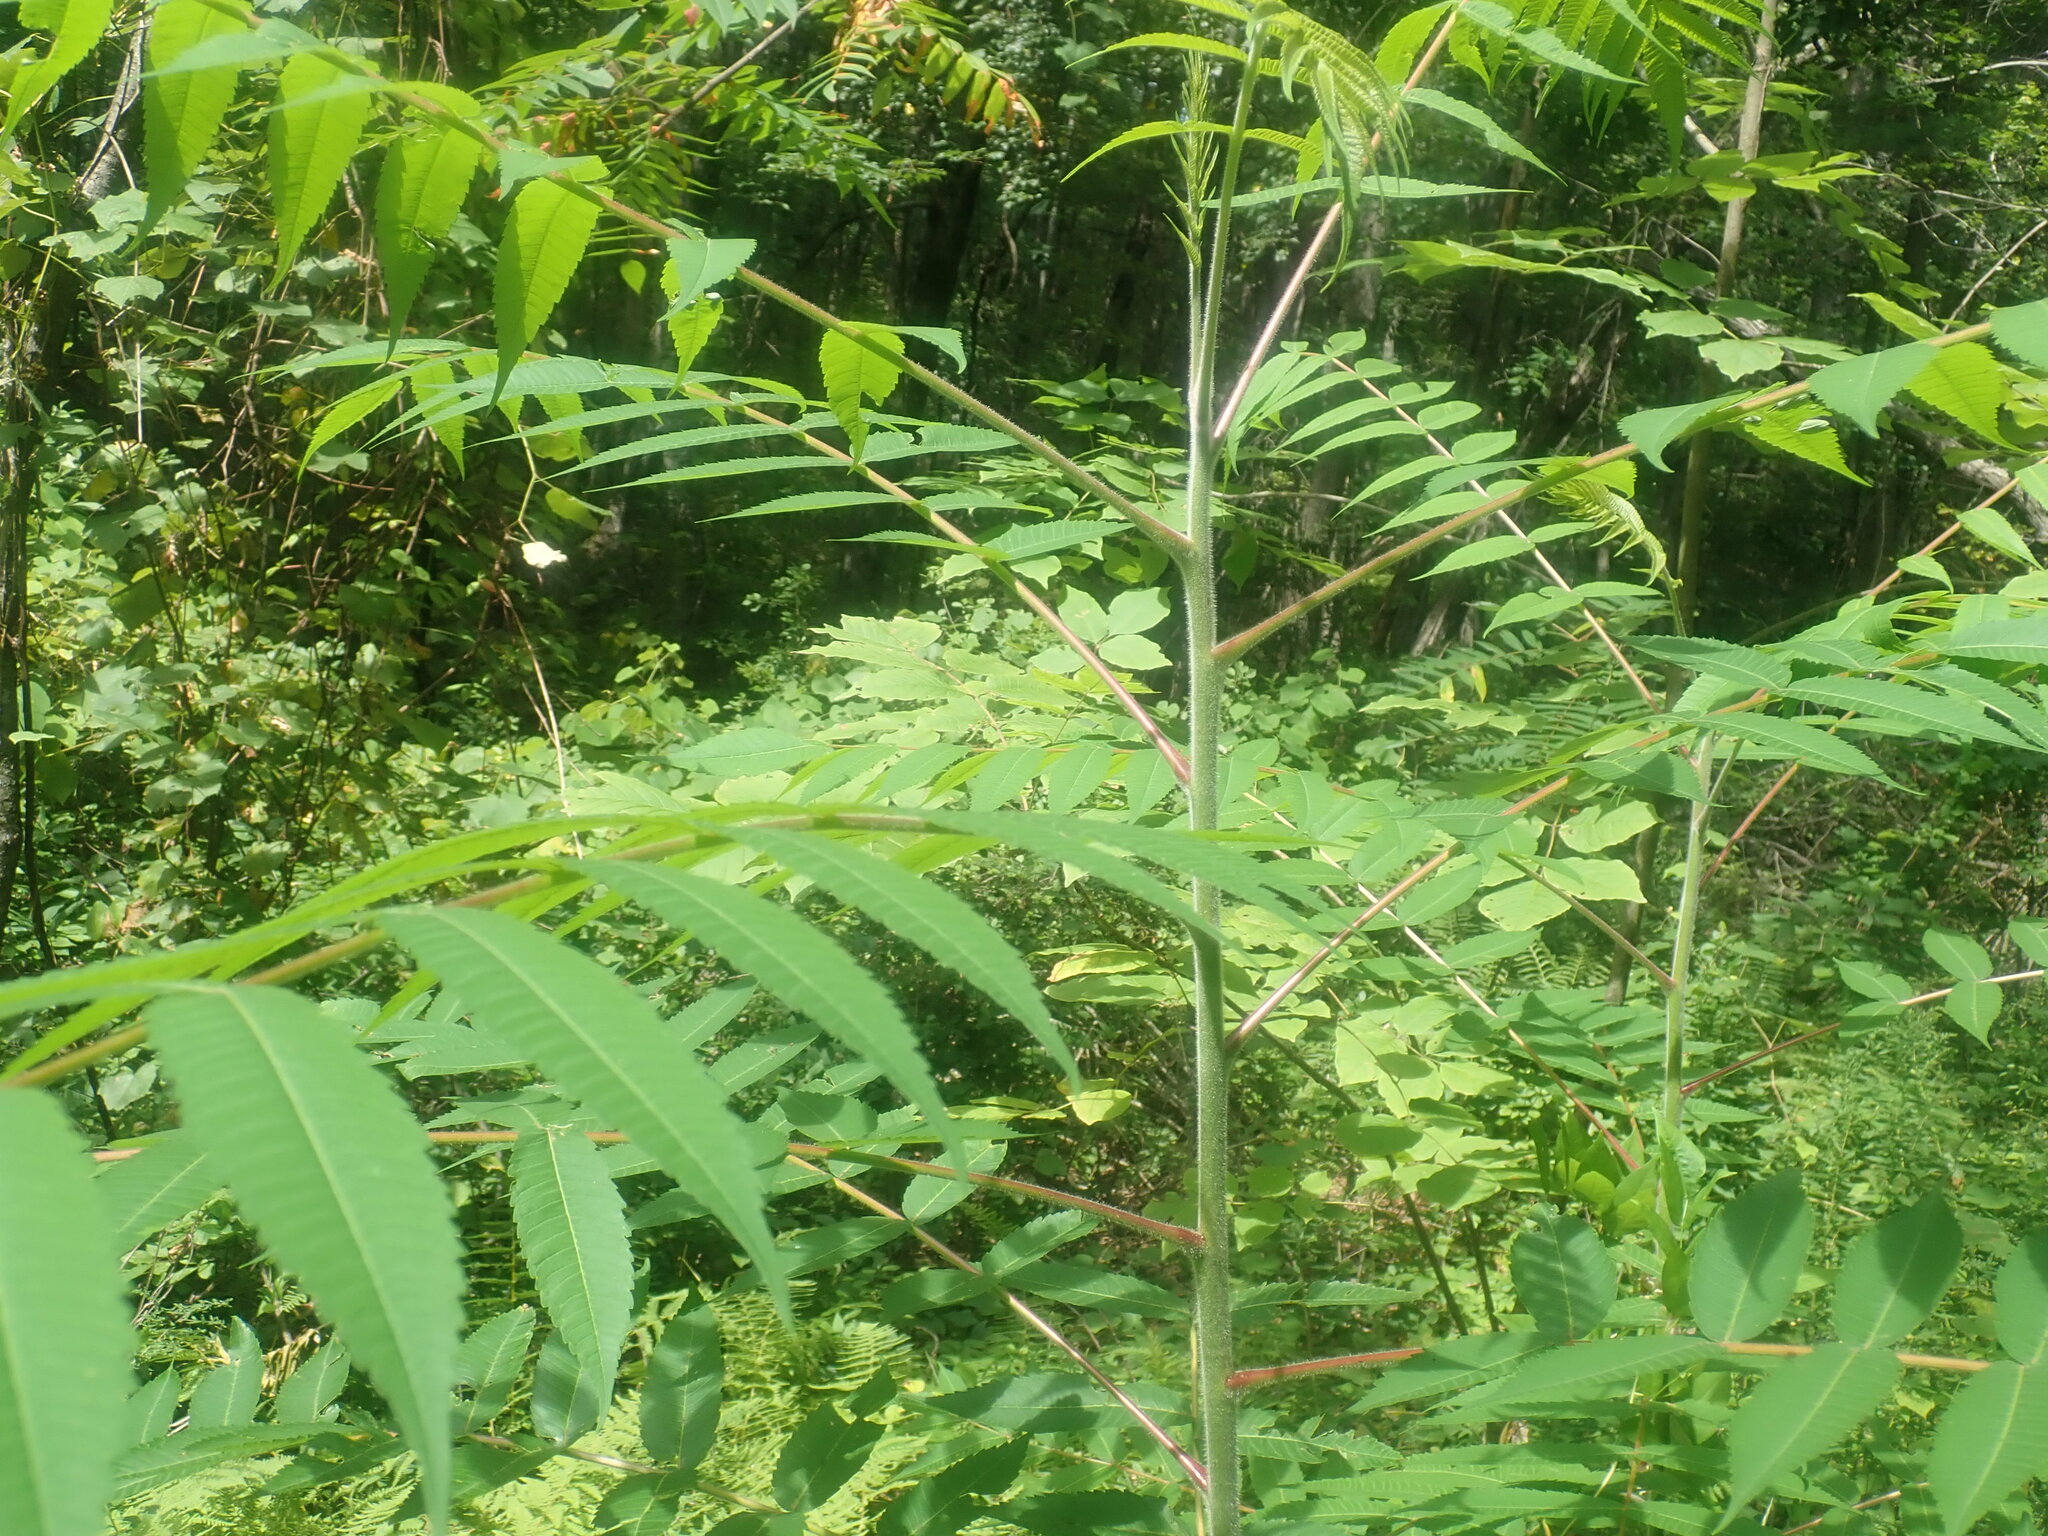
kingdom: Plantae
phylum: Tracheophyta
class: Magnoliopsida
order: Sapindales
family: Anacardiaceae
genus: Rhus
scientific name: Rhus typhina
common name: Staghorn sumac
